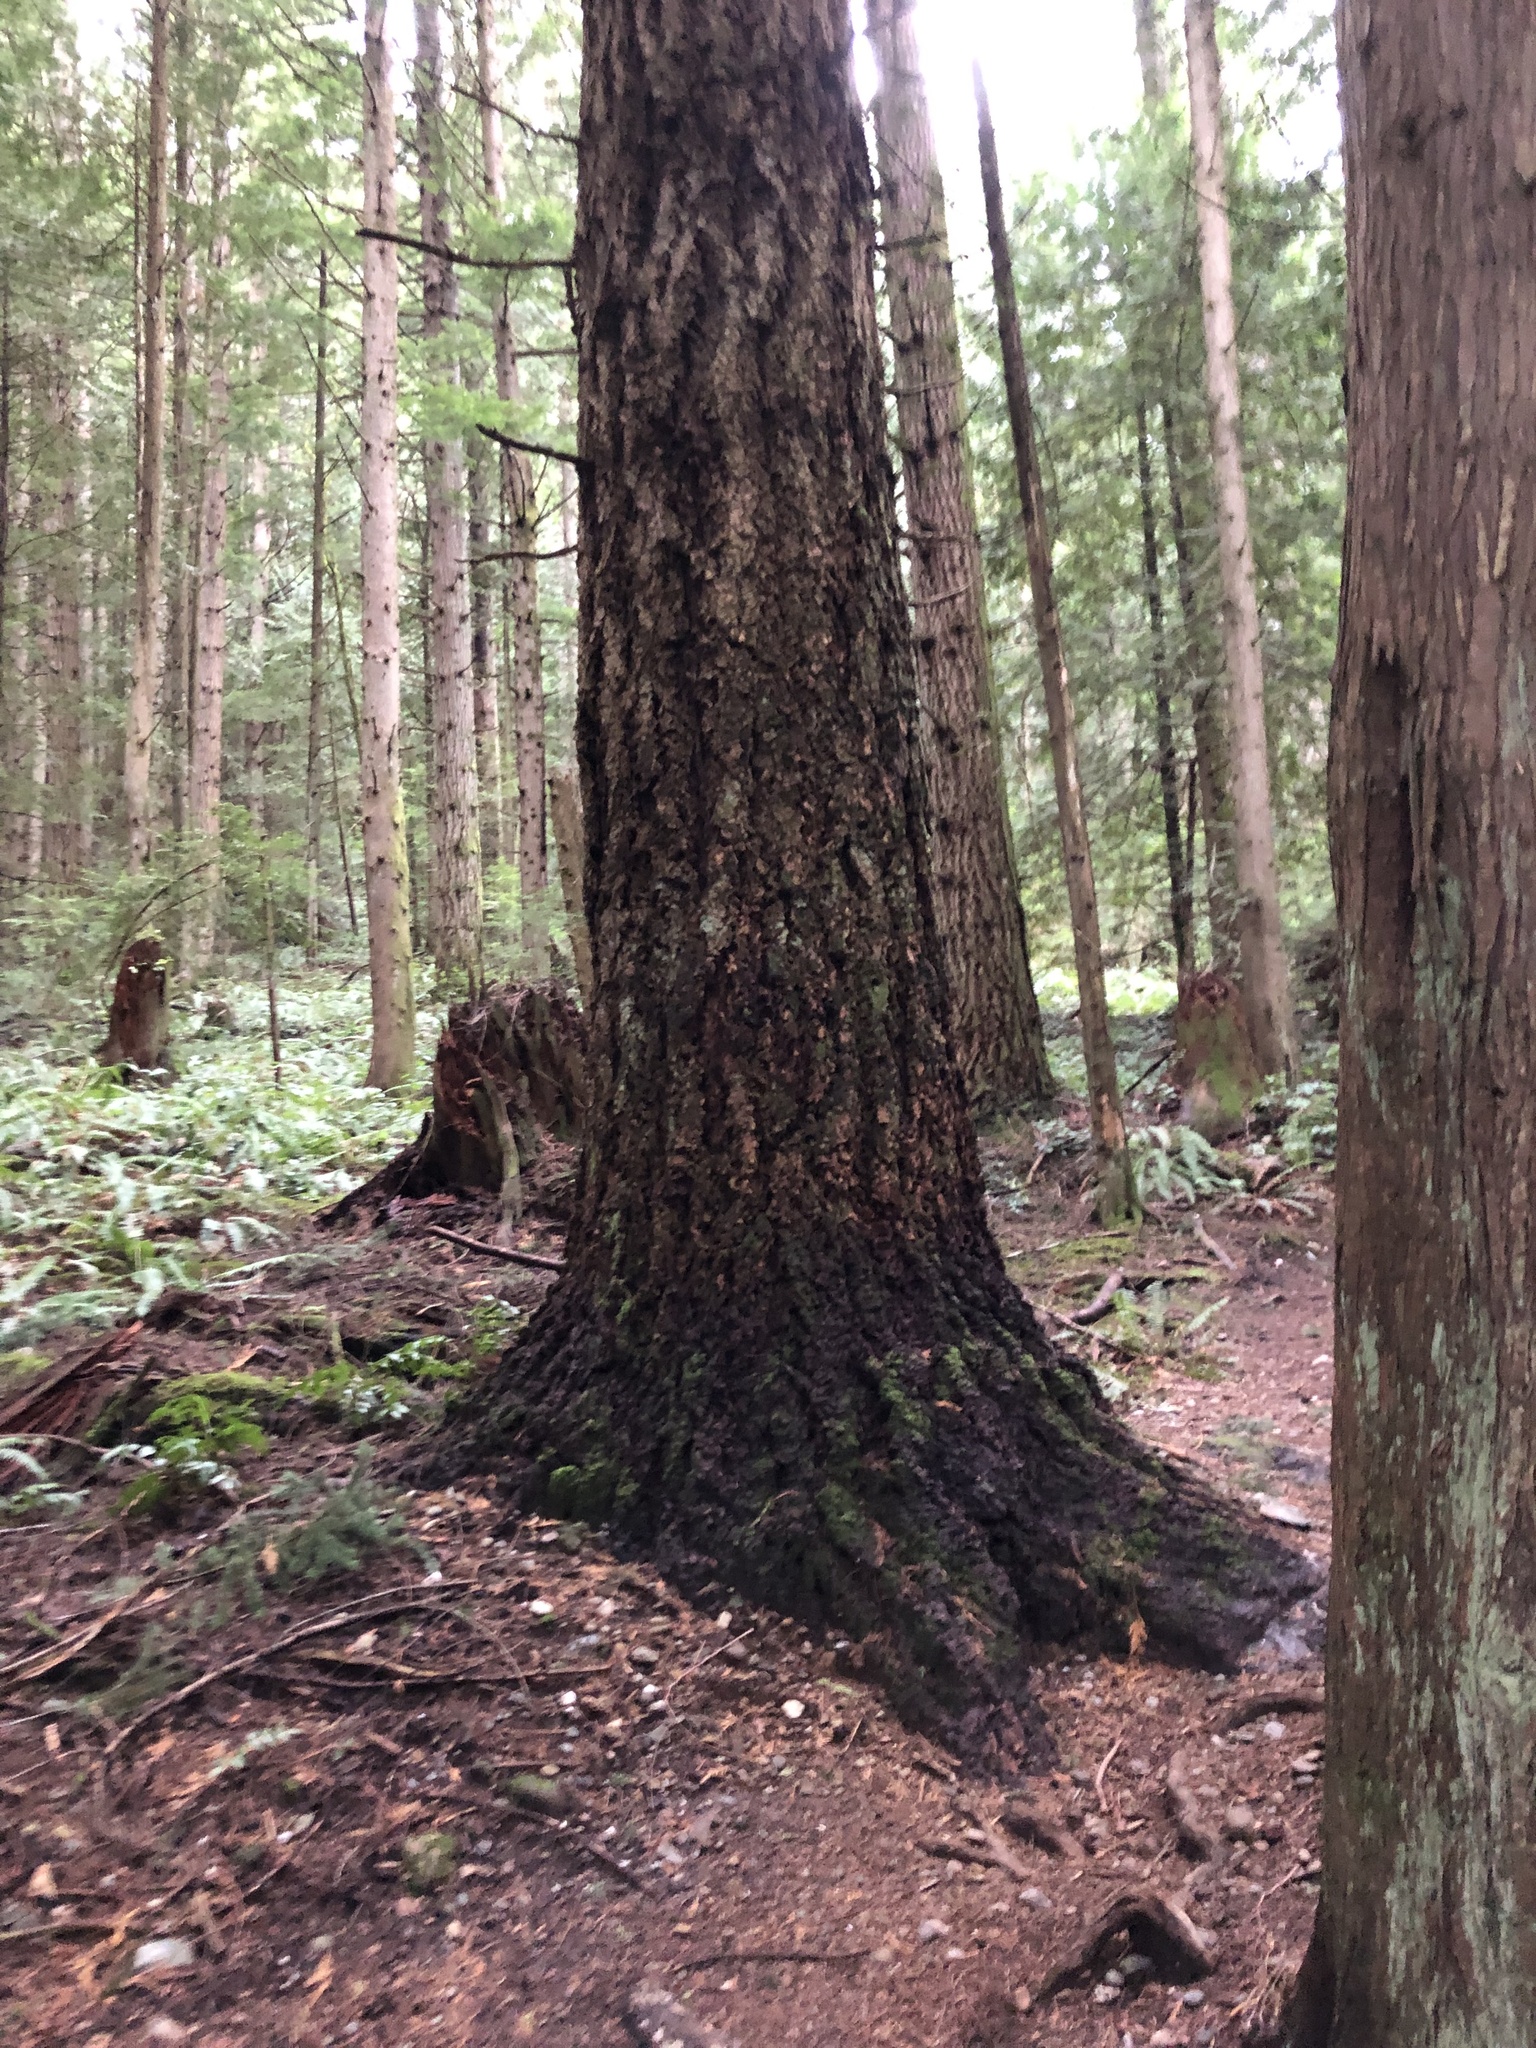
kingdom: Plantae
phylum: Tracheophyta
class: Pinopsida
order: Pinales
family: Pinaceae
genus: Pseudotsuga
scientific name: Pseudotsuga menziesii
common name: Douglas fir
